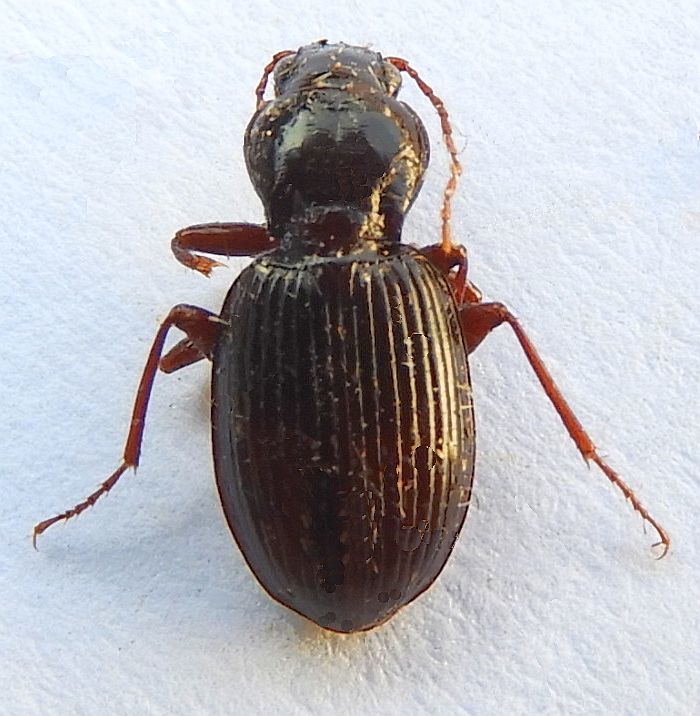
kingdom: Animalia
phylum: Arthropoda
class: Insecta
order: Coleoptera
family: Carabidae
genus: Gastrellarius
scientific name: Gastrellarius honestus
